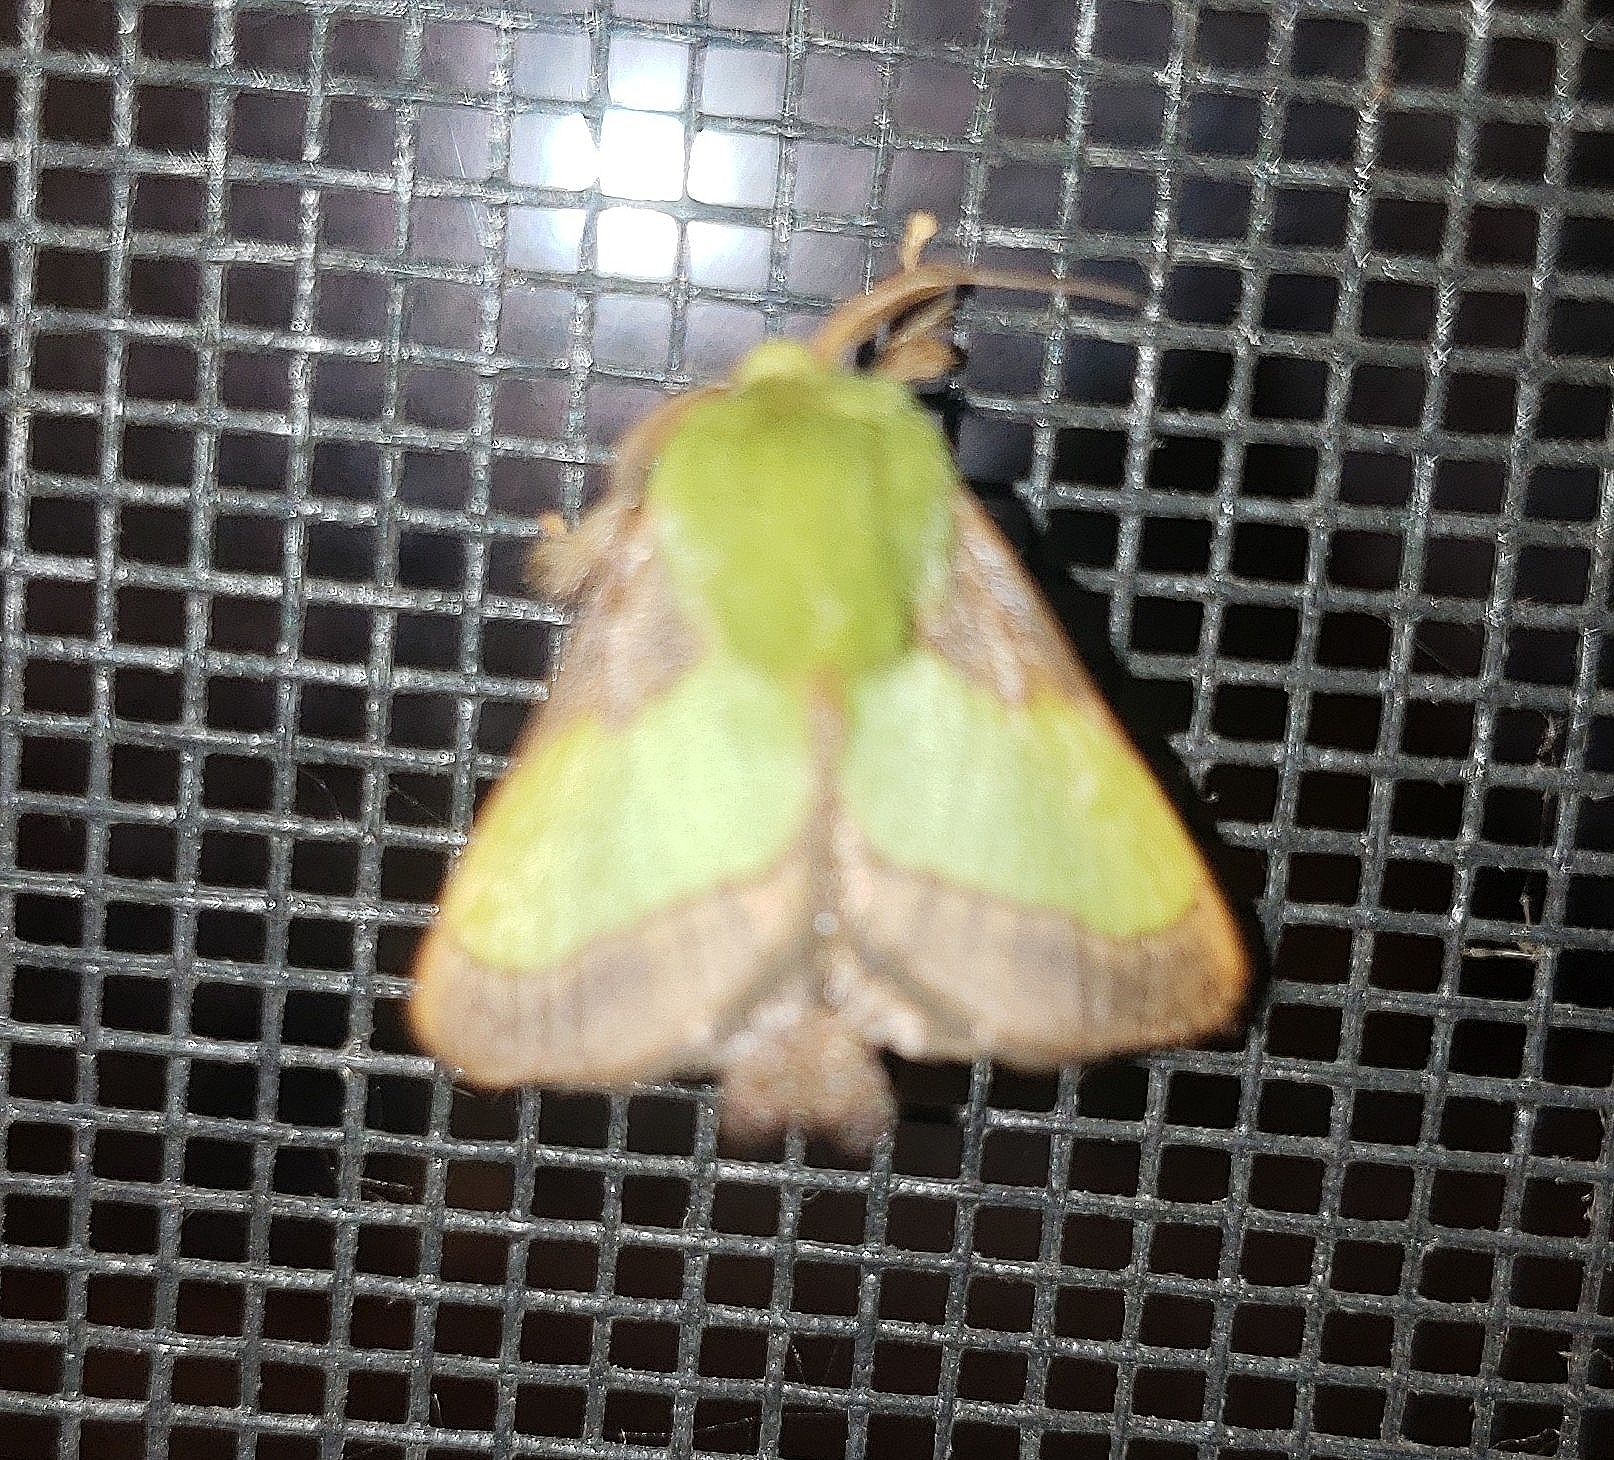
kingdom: Animalia
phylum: Arthropoda
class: Insecta
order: Lepidoptera
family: Limacodidae
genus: Parasa
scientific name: Parasa chloris
